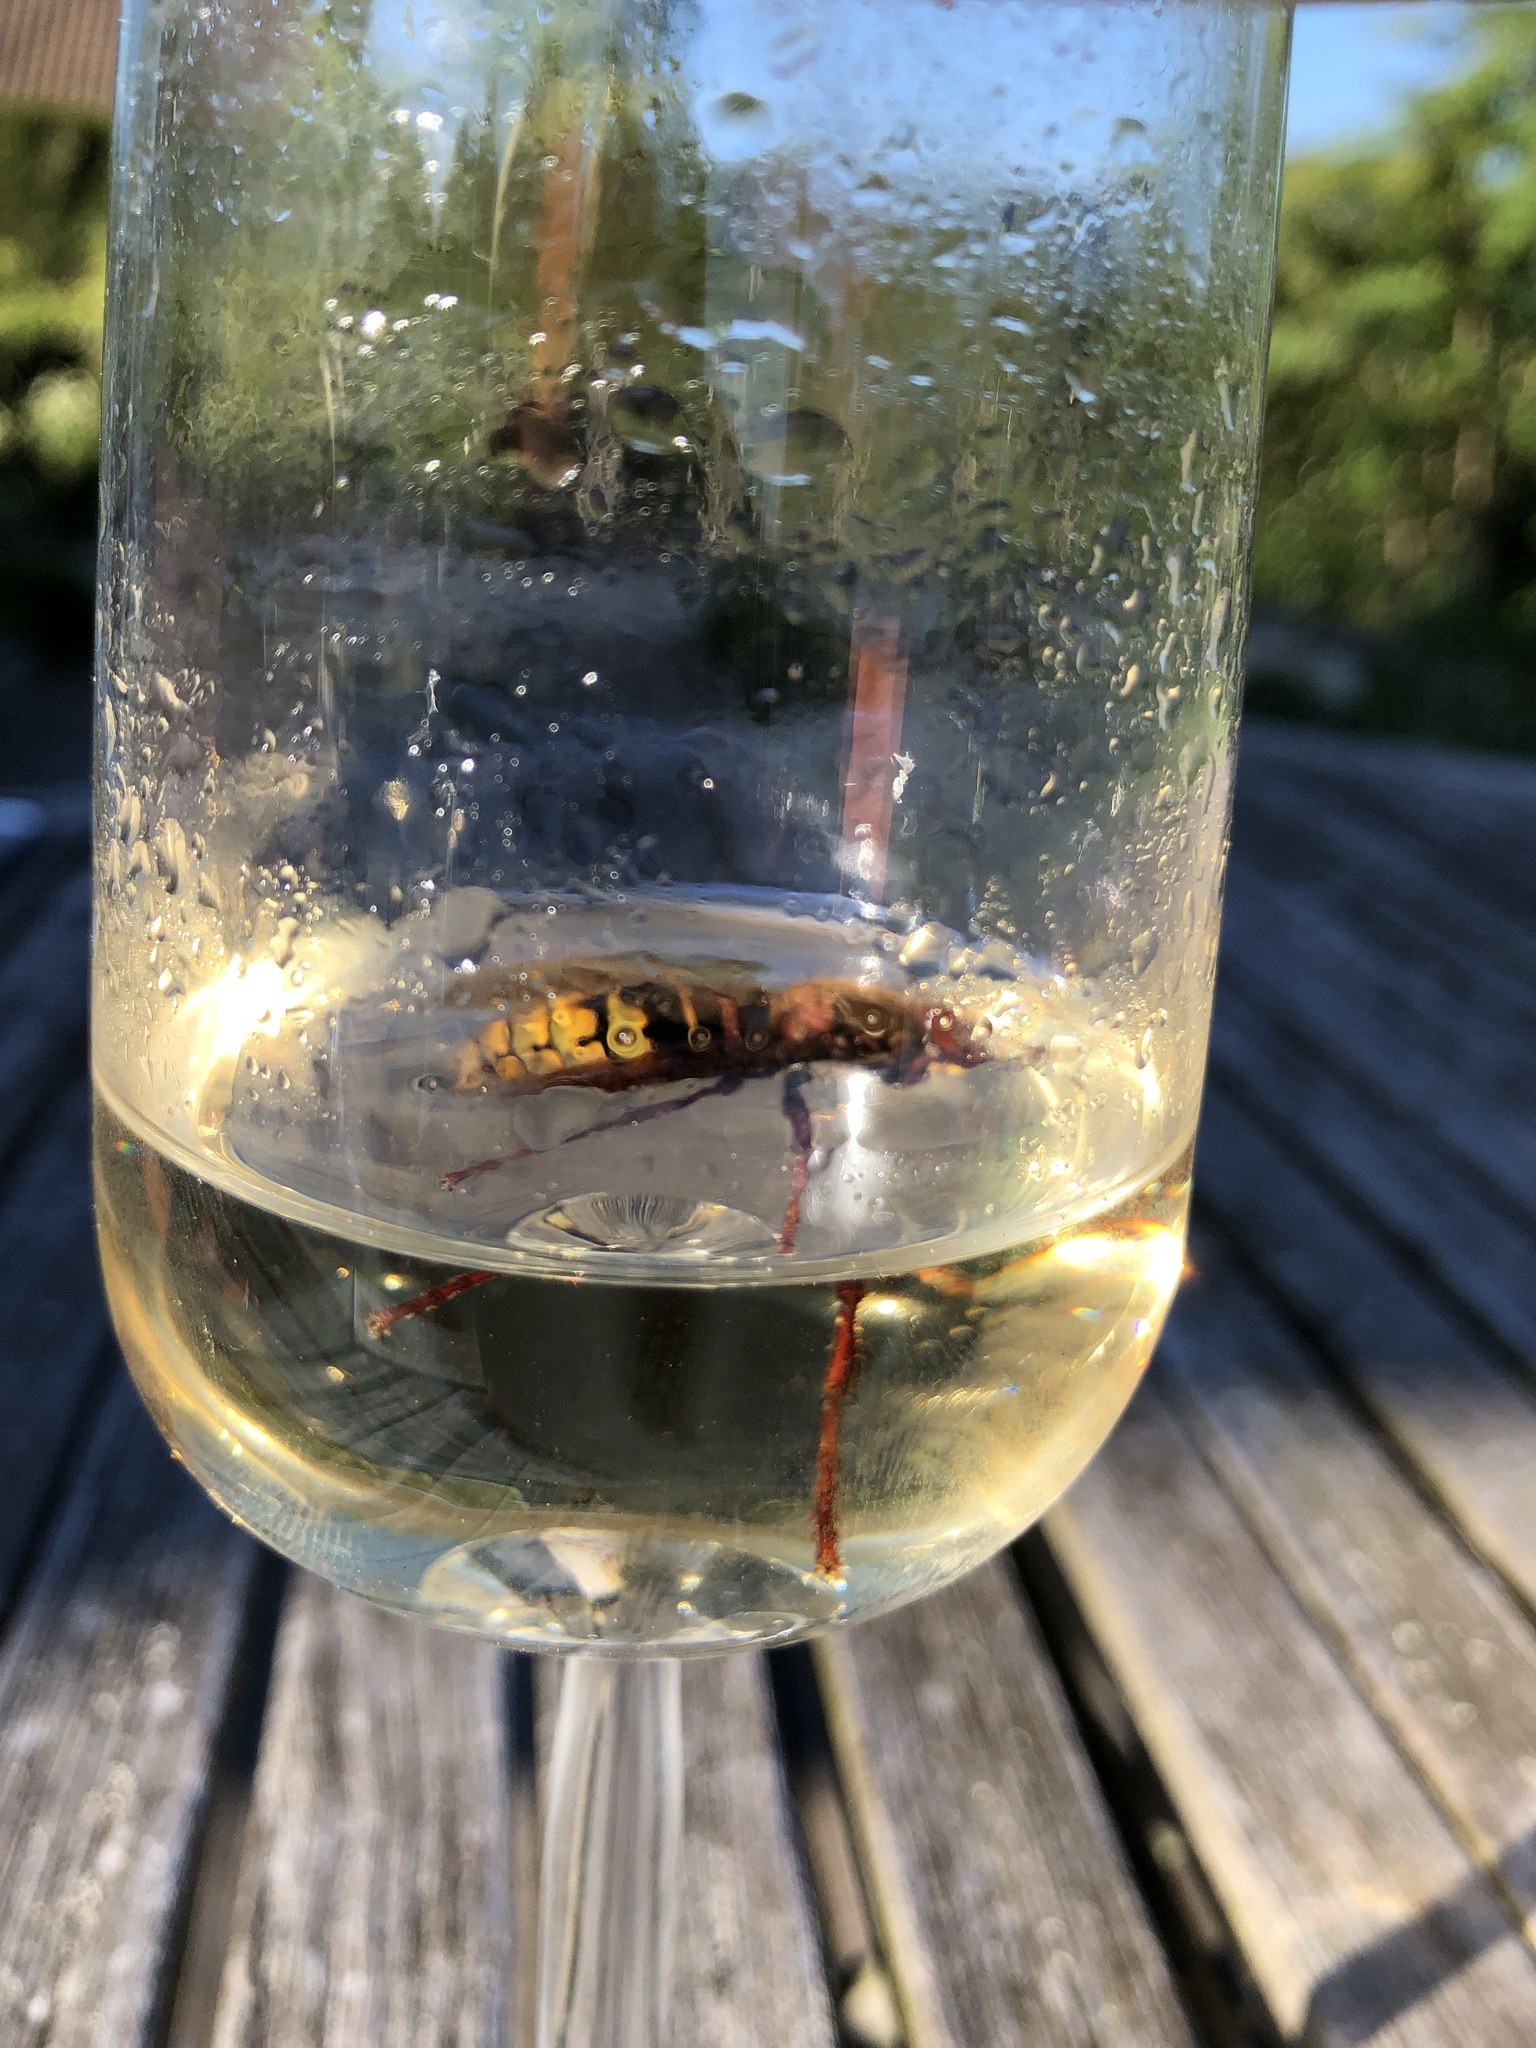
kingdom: Animalia
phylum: Arthropoda
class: Insecta
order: Hymenoptera
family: Vespidae
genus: Vespa
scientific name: Vespa crabro
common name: Hornet
